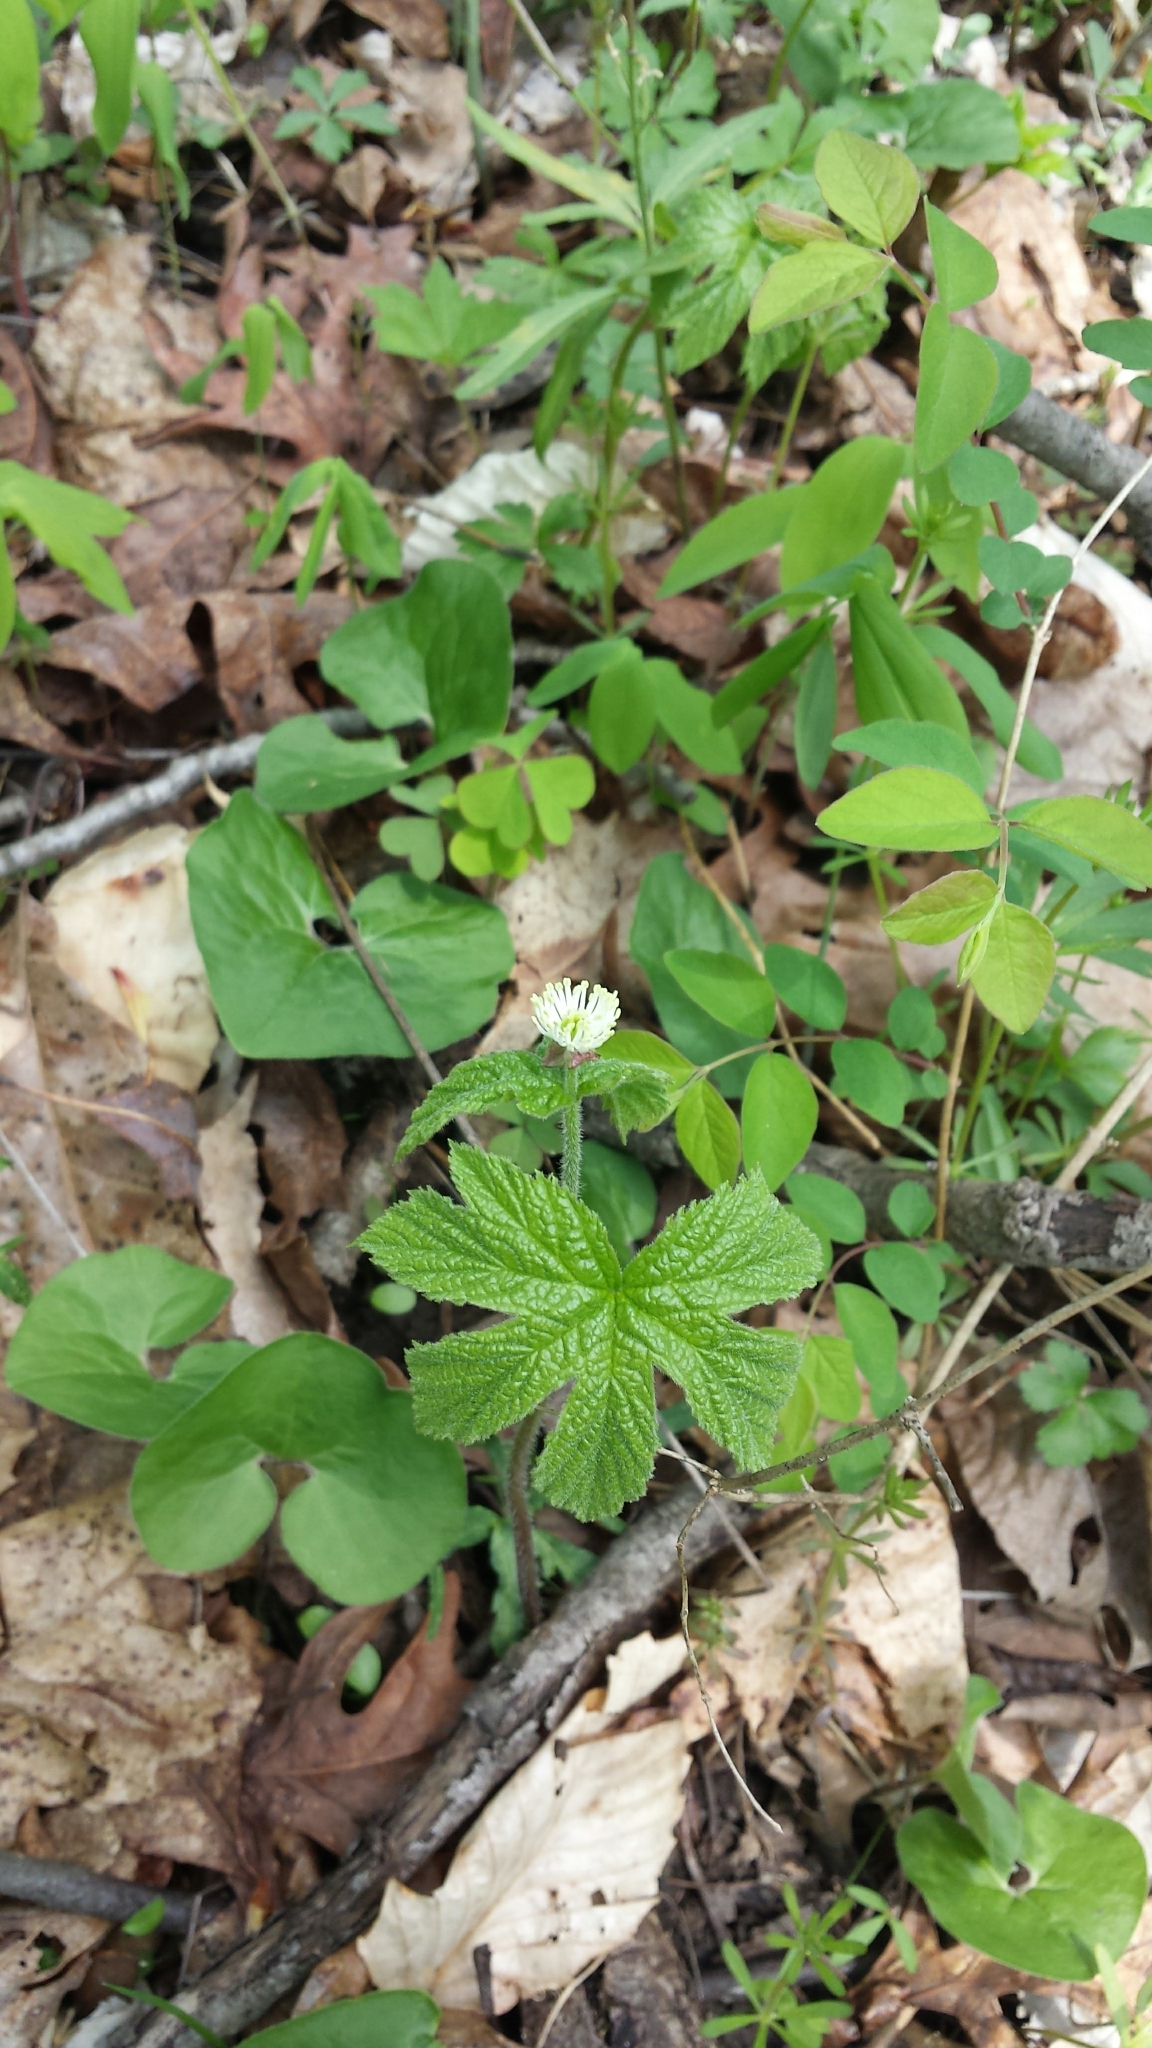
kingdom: Plantae
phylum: Tracheophyta
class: Magnoliopsida
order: Ranunculales
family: Ranunculaceae
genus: Hydrastis
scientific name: Hydrastis canadensis
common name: Goldenseal
